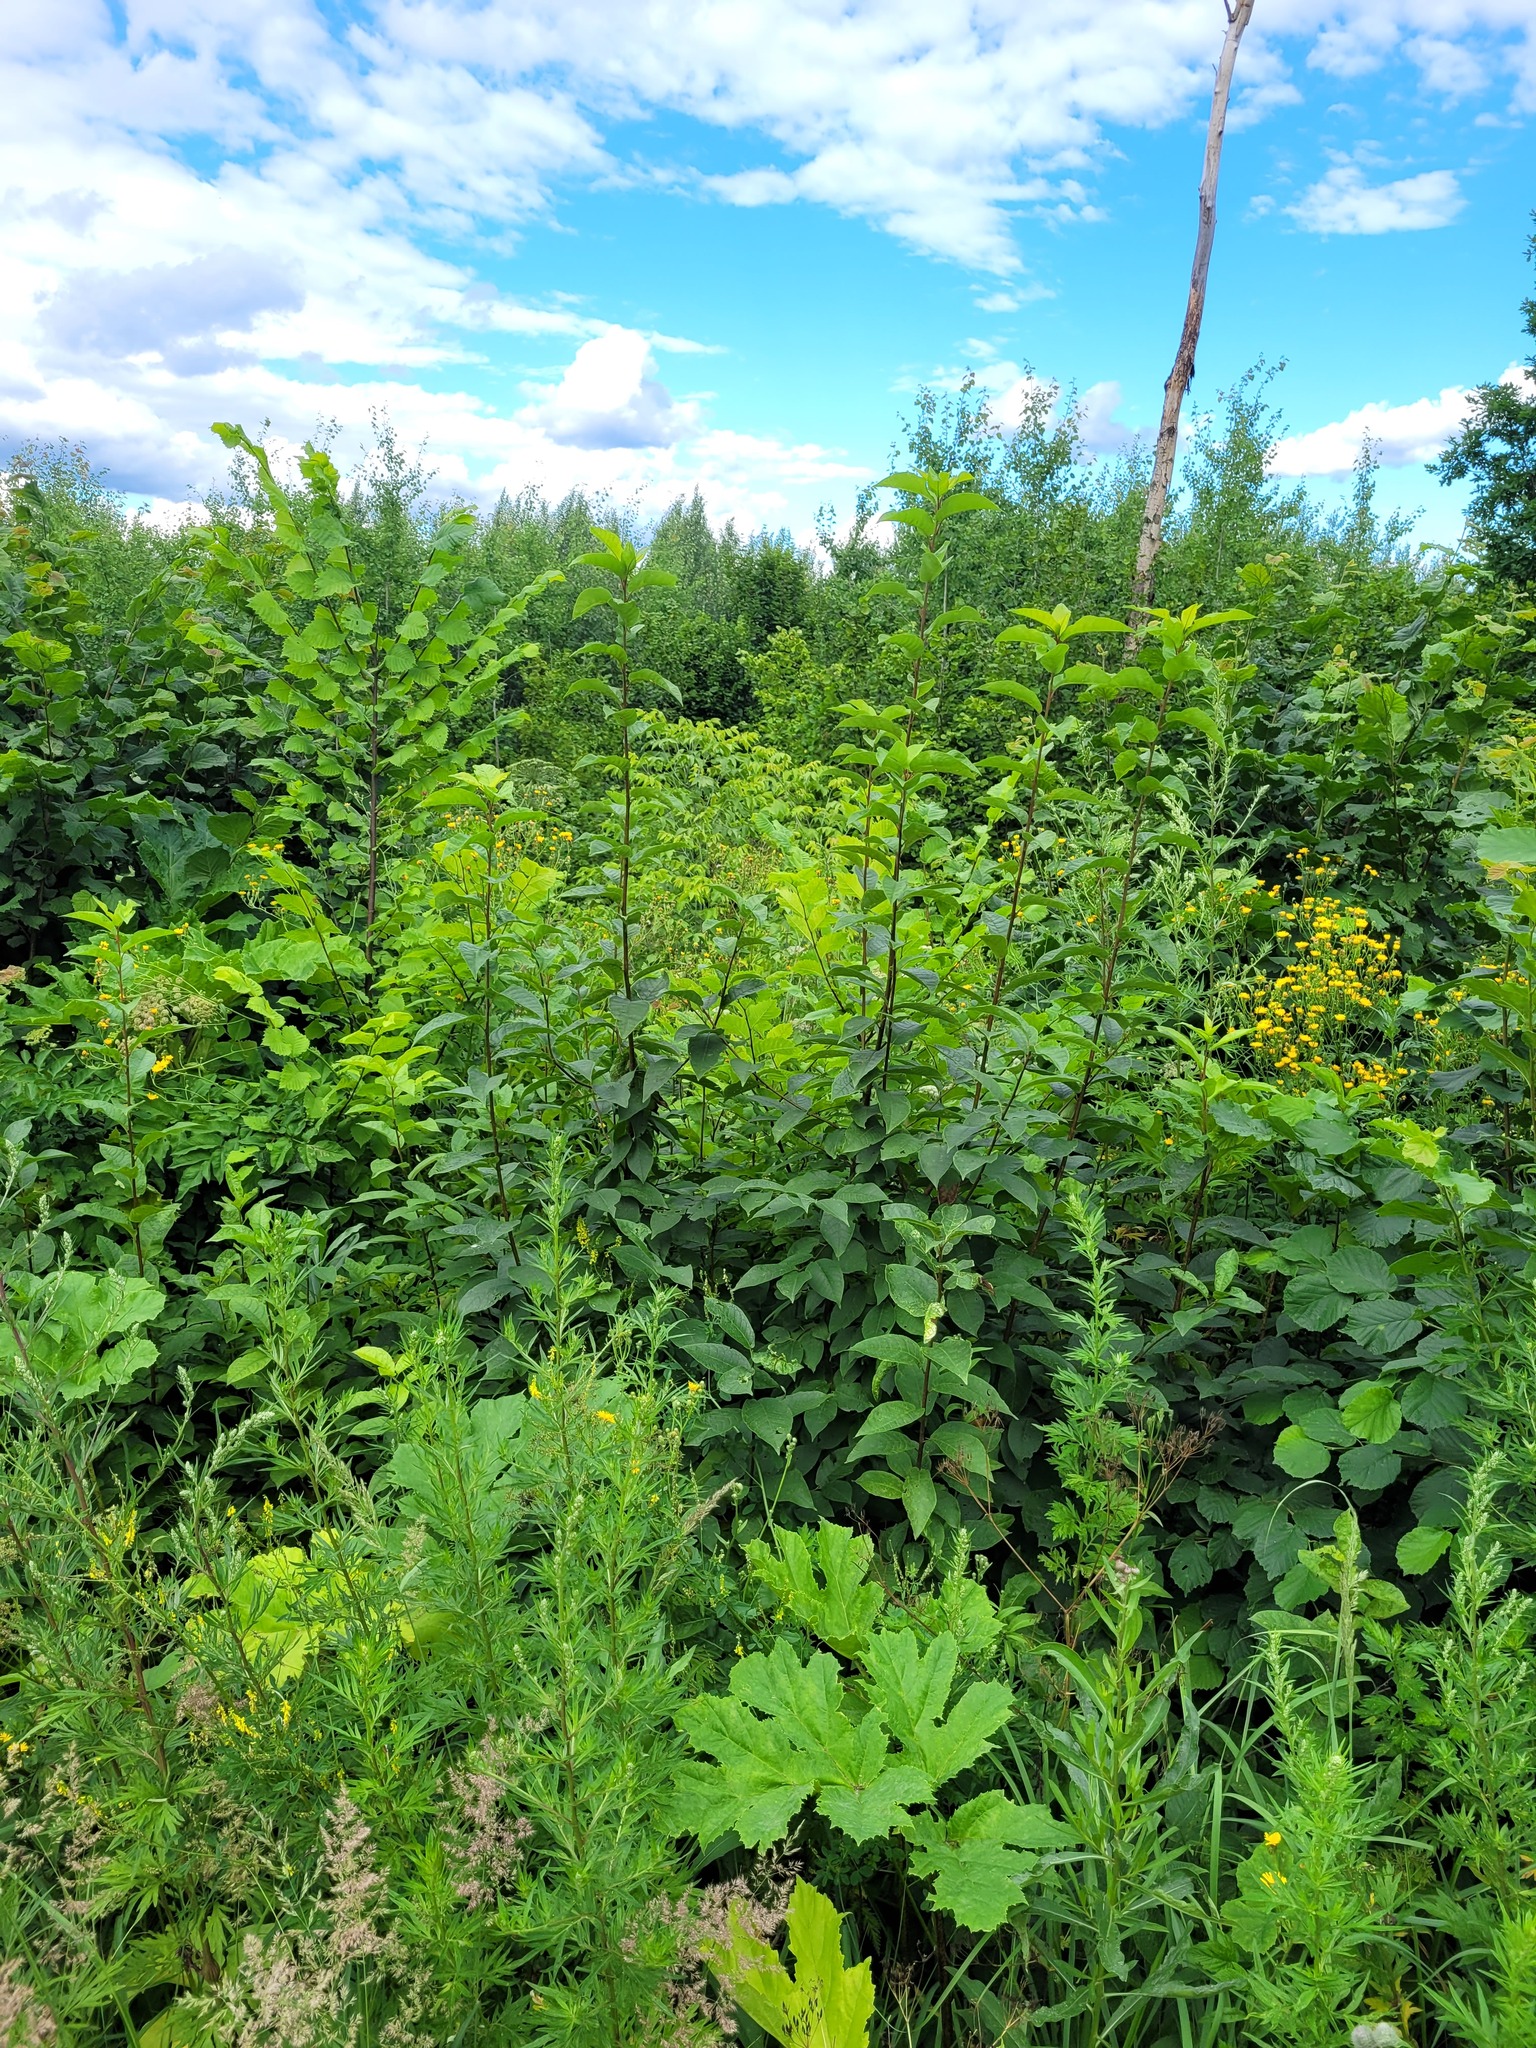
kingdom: Plantae
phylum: Tracheophyta
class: Magnoliopsida
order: Rosales
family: Rosaceae
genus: Prunus
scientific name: Prunus padus
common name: Bird cherry
